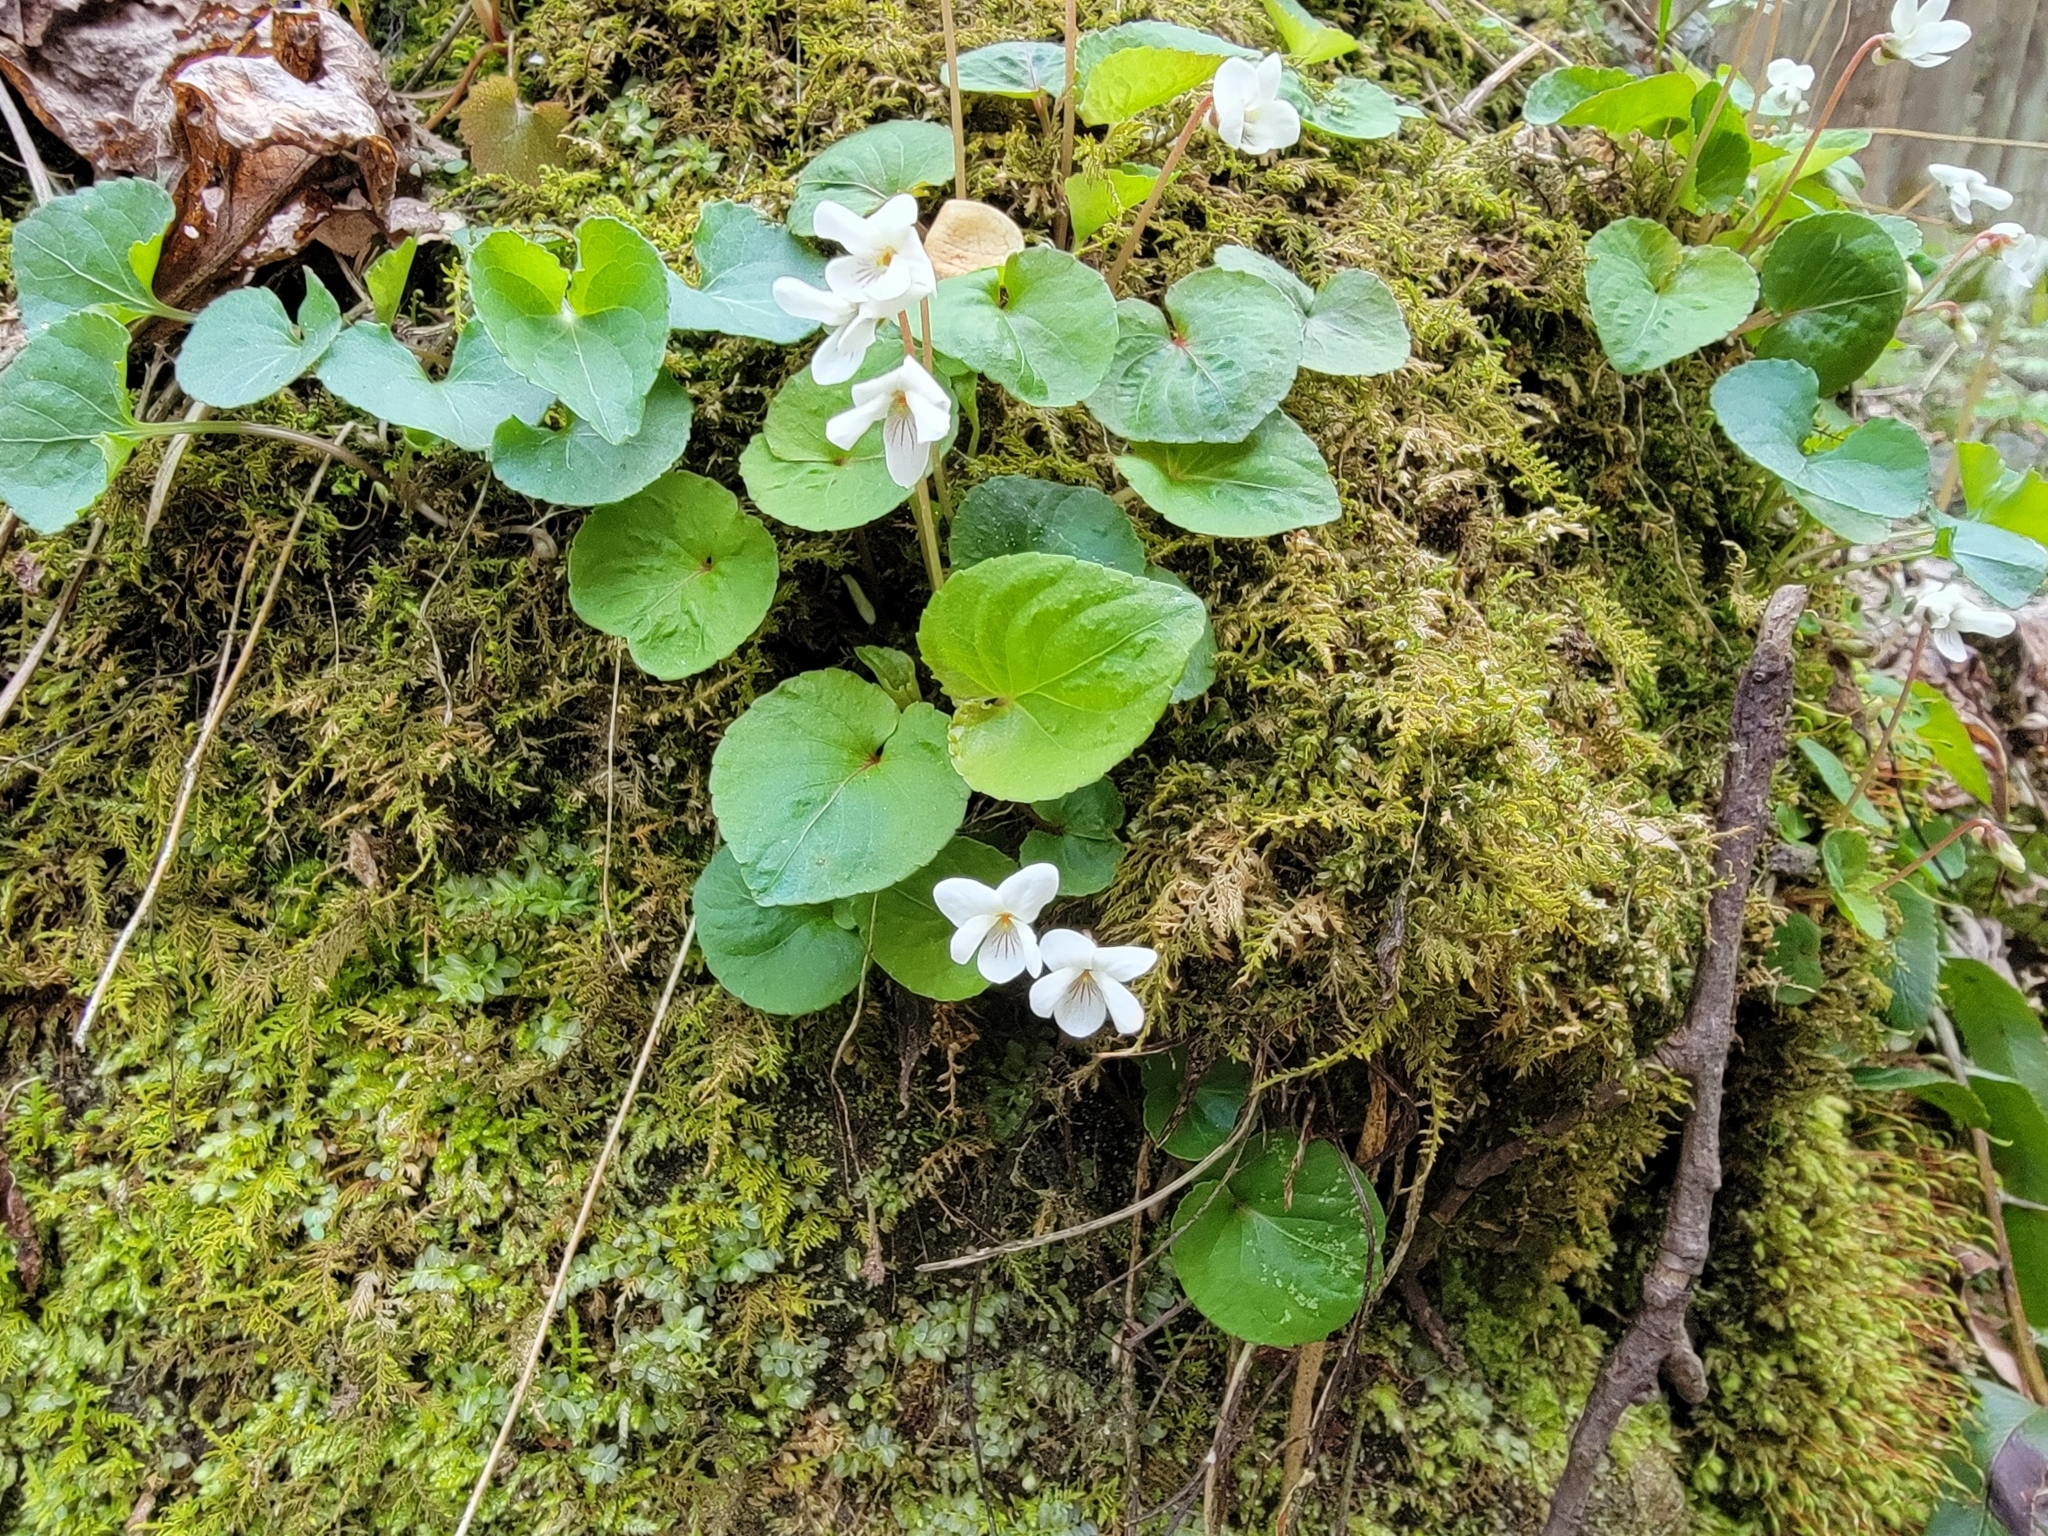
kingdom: Plantae
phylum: Tracheophyta
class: Magnoliopsida
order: Malpighiales
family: Violaceae
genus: Viola
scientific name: Viola blanda
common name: Sweet white violet
